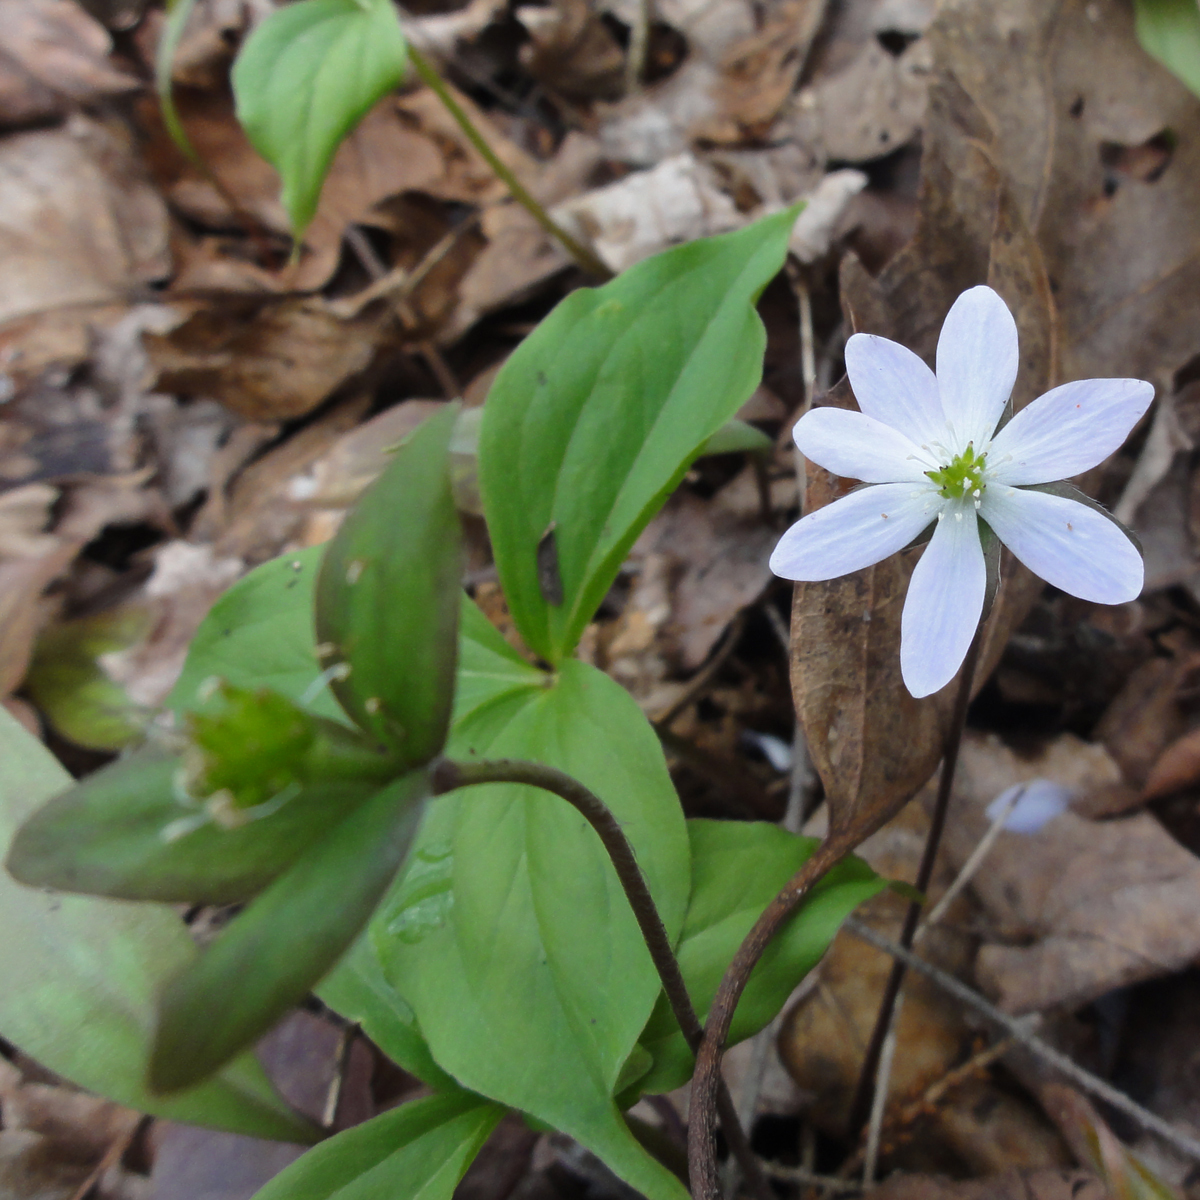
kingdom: Plantae
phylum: Tracheophyta
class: Magnoliopsida
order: Ranunculales
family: Ranunculaceae
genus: Hepatica
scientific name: Hepatica acutiloba
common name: Sharp-lobed hepatica
